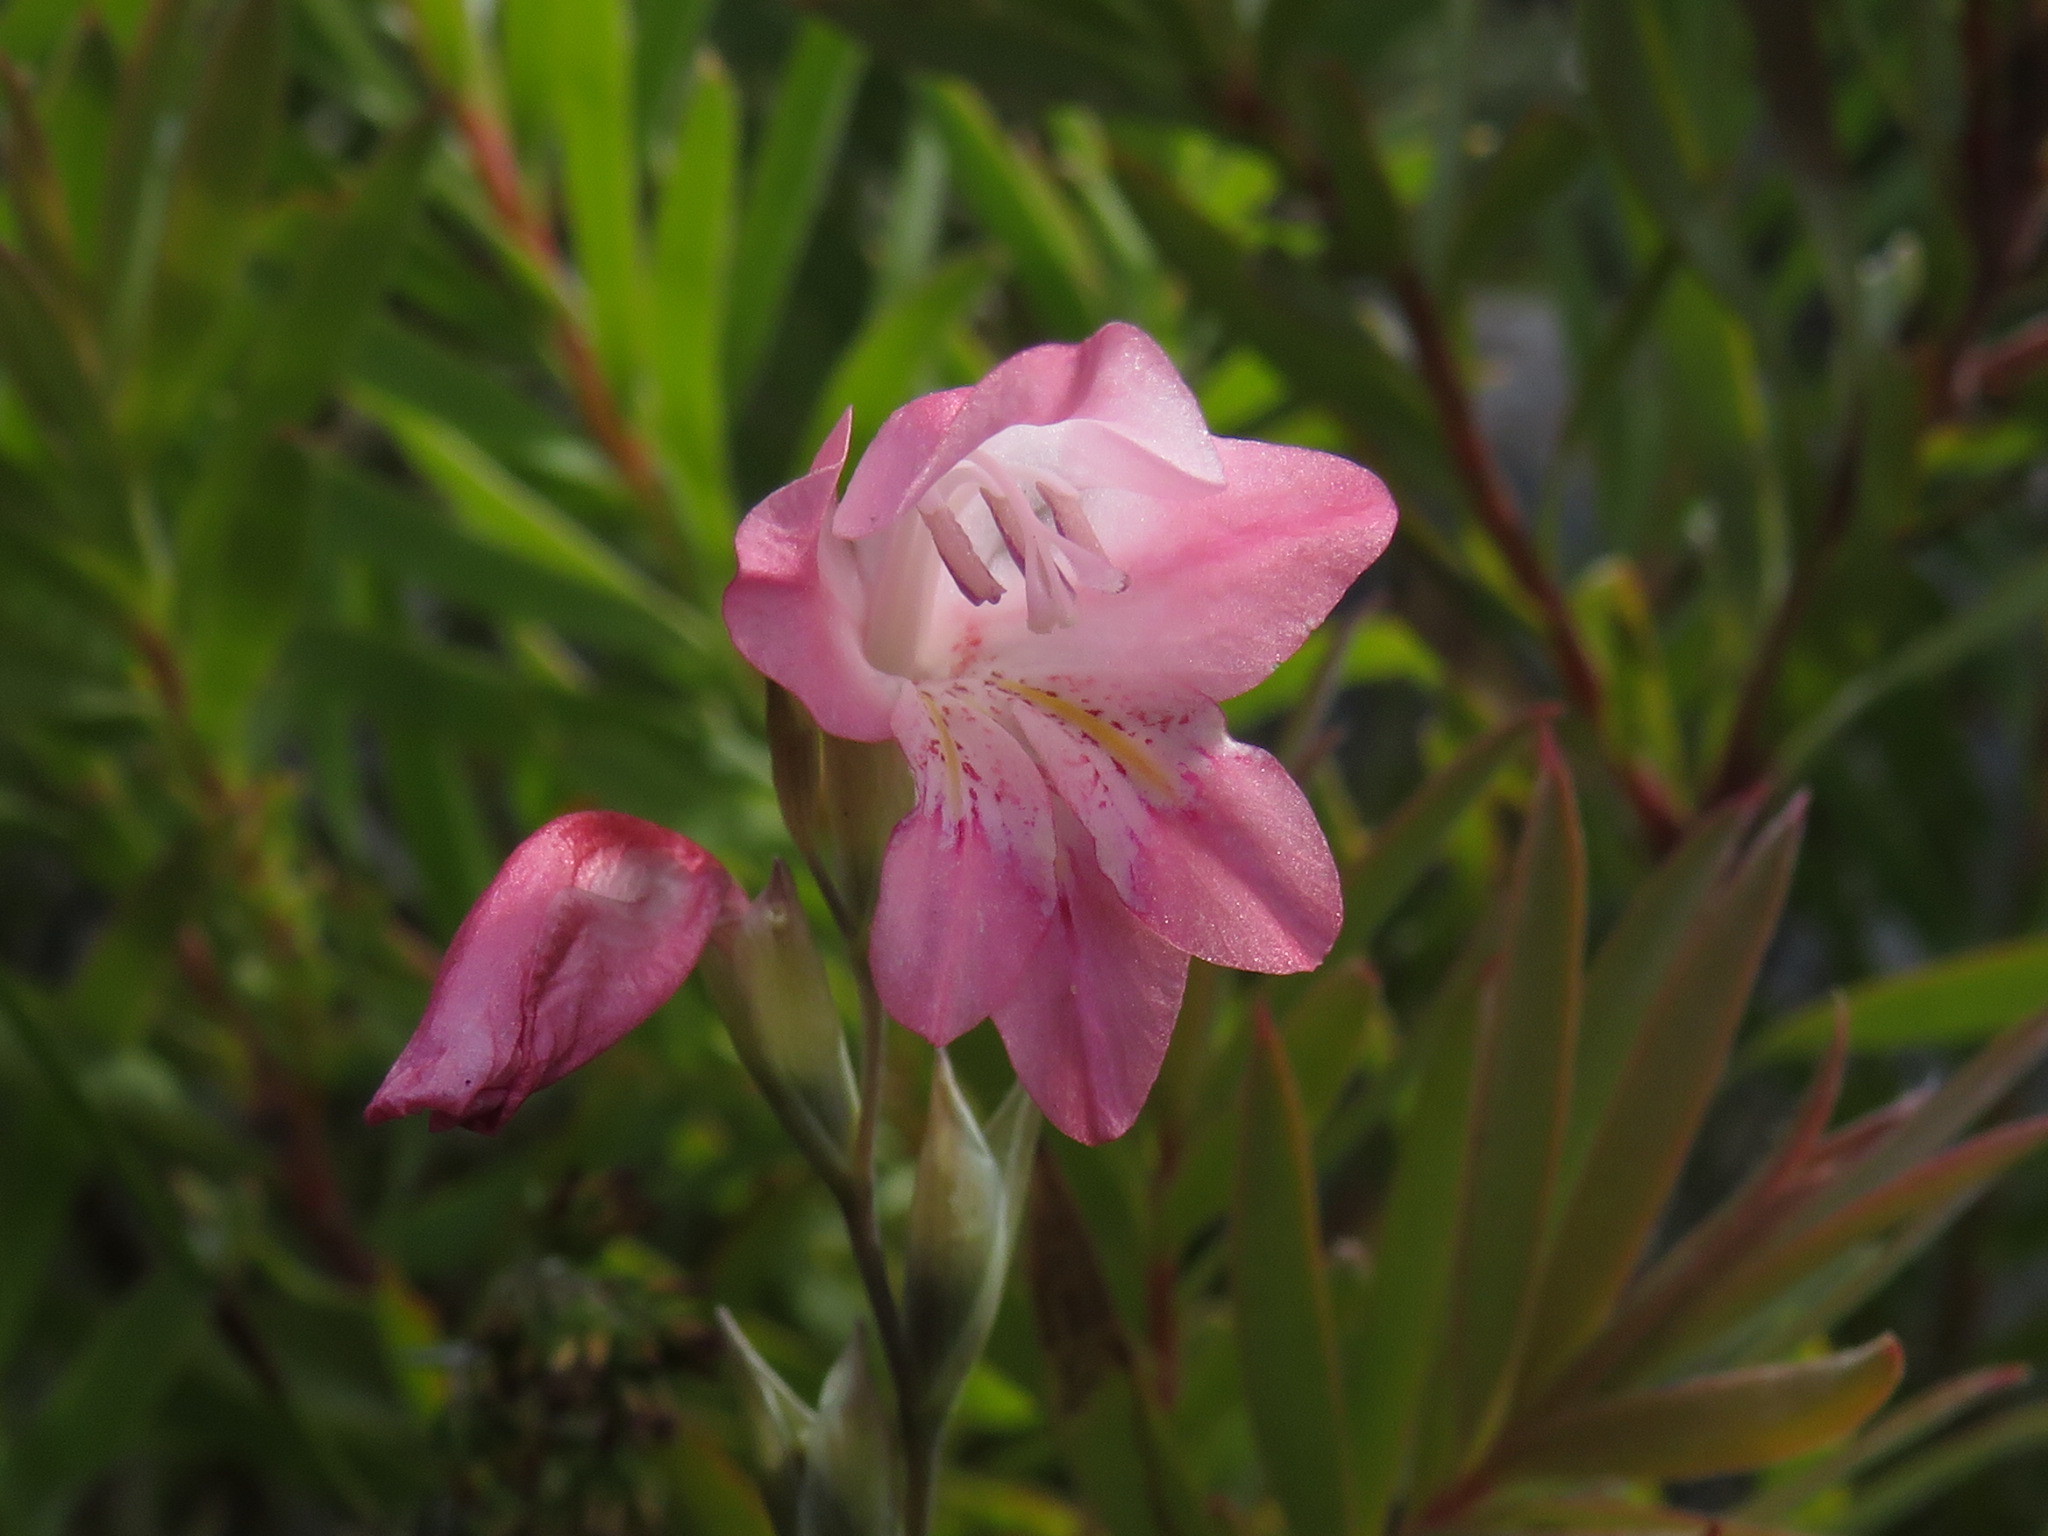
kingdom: Plantae
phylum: Tracheophyta
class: Liliopsida
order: Asparagales
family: Iridaceae
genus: Gladiolus
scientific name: Gladiolus brevifolius
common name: March pypie
